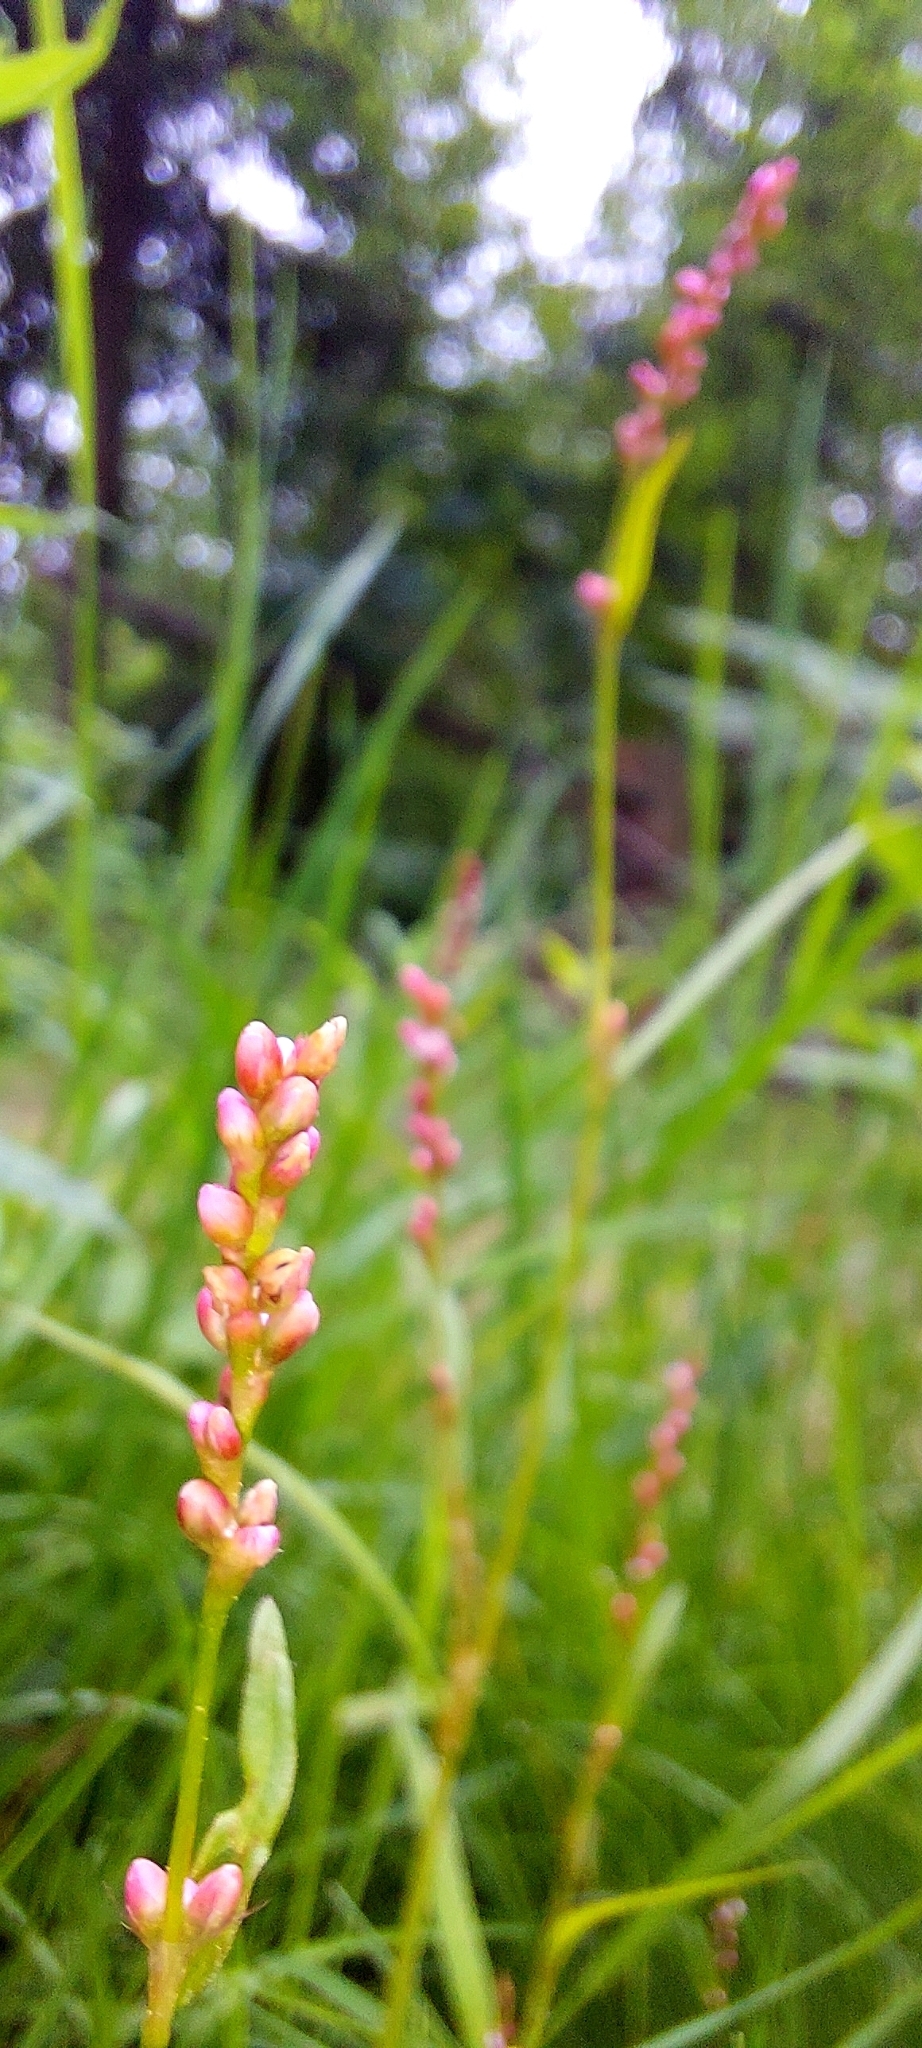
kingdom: Plantae
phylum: Tracheophyta
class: Magnoliopsida
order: Caryophyllales
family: Polygonaceae
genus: Persicaria
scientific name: Persicaria minor
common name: Small water-pepper
